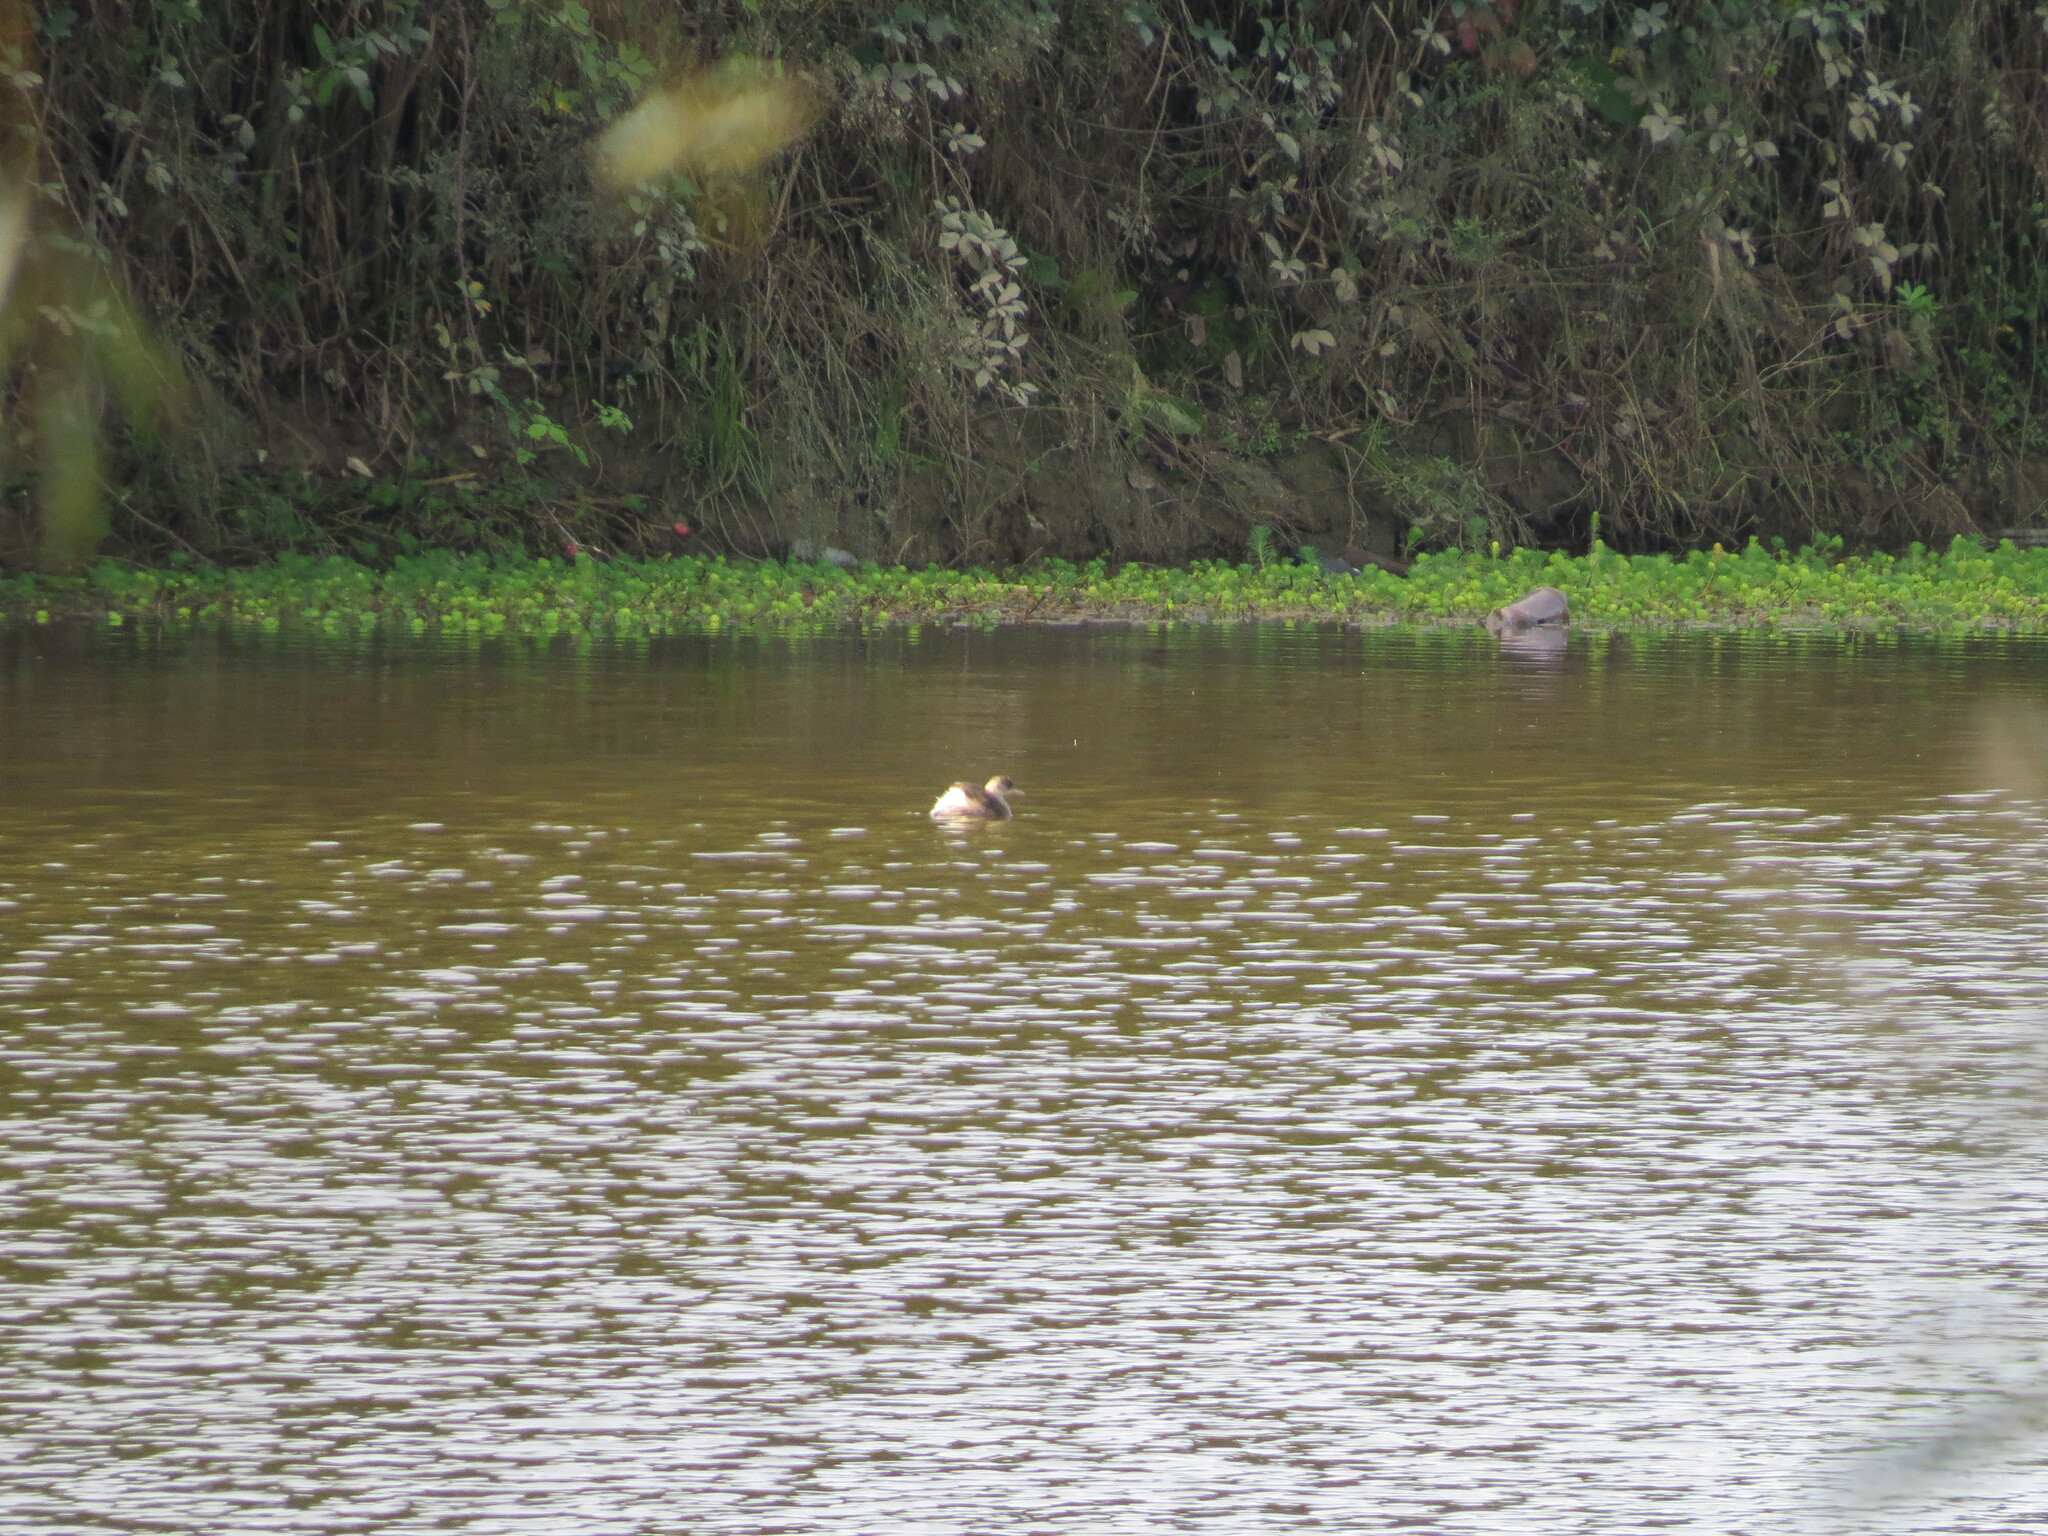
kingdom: Animalia
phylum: Chordata
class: Aves
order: Podicipediformes
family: Podicipedidae
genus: Tachybaptus
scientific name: Tachybaptus ruficollis
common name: Little grebe
